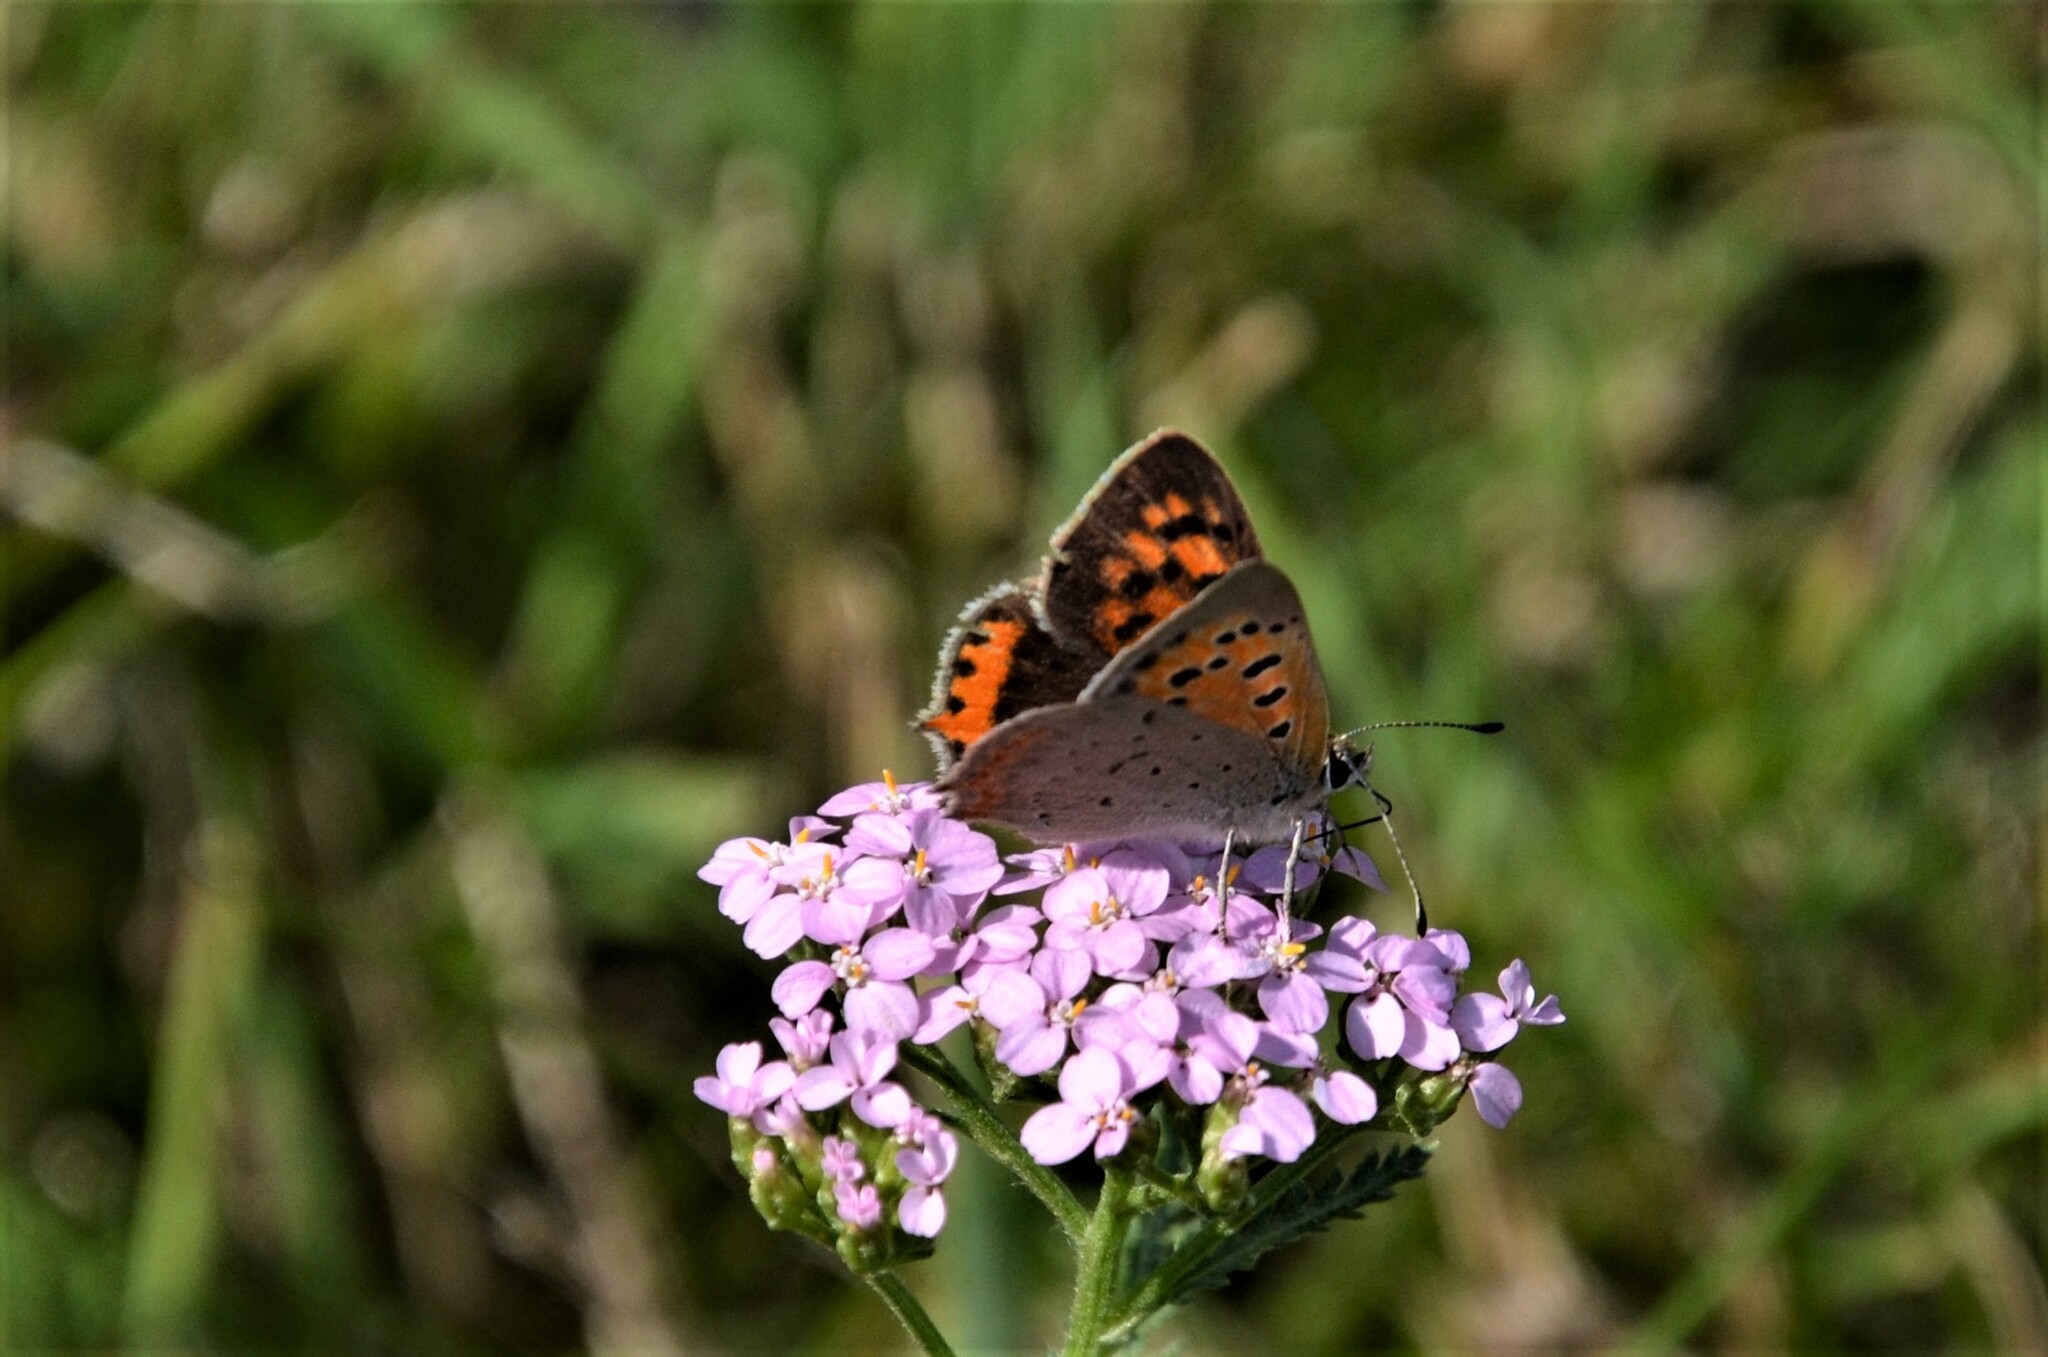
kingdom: Animalia
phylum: Arthropoda
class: Insecta
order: Lepidoptera
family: Lycaenidae
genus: Lycaena
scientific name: Lycaena phlaeas
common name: Small copper
